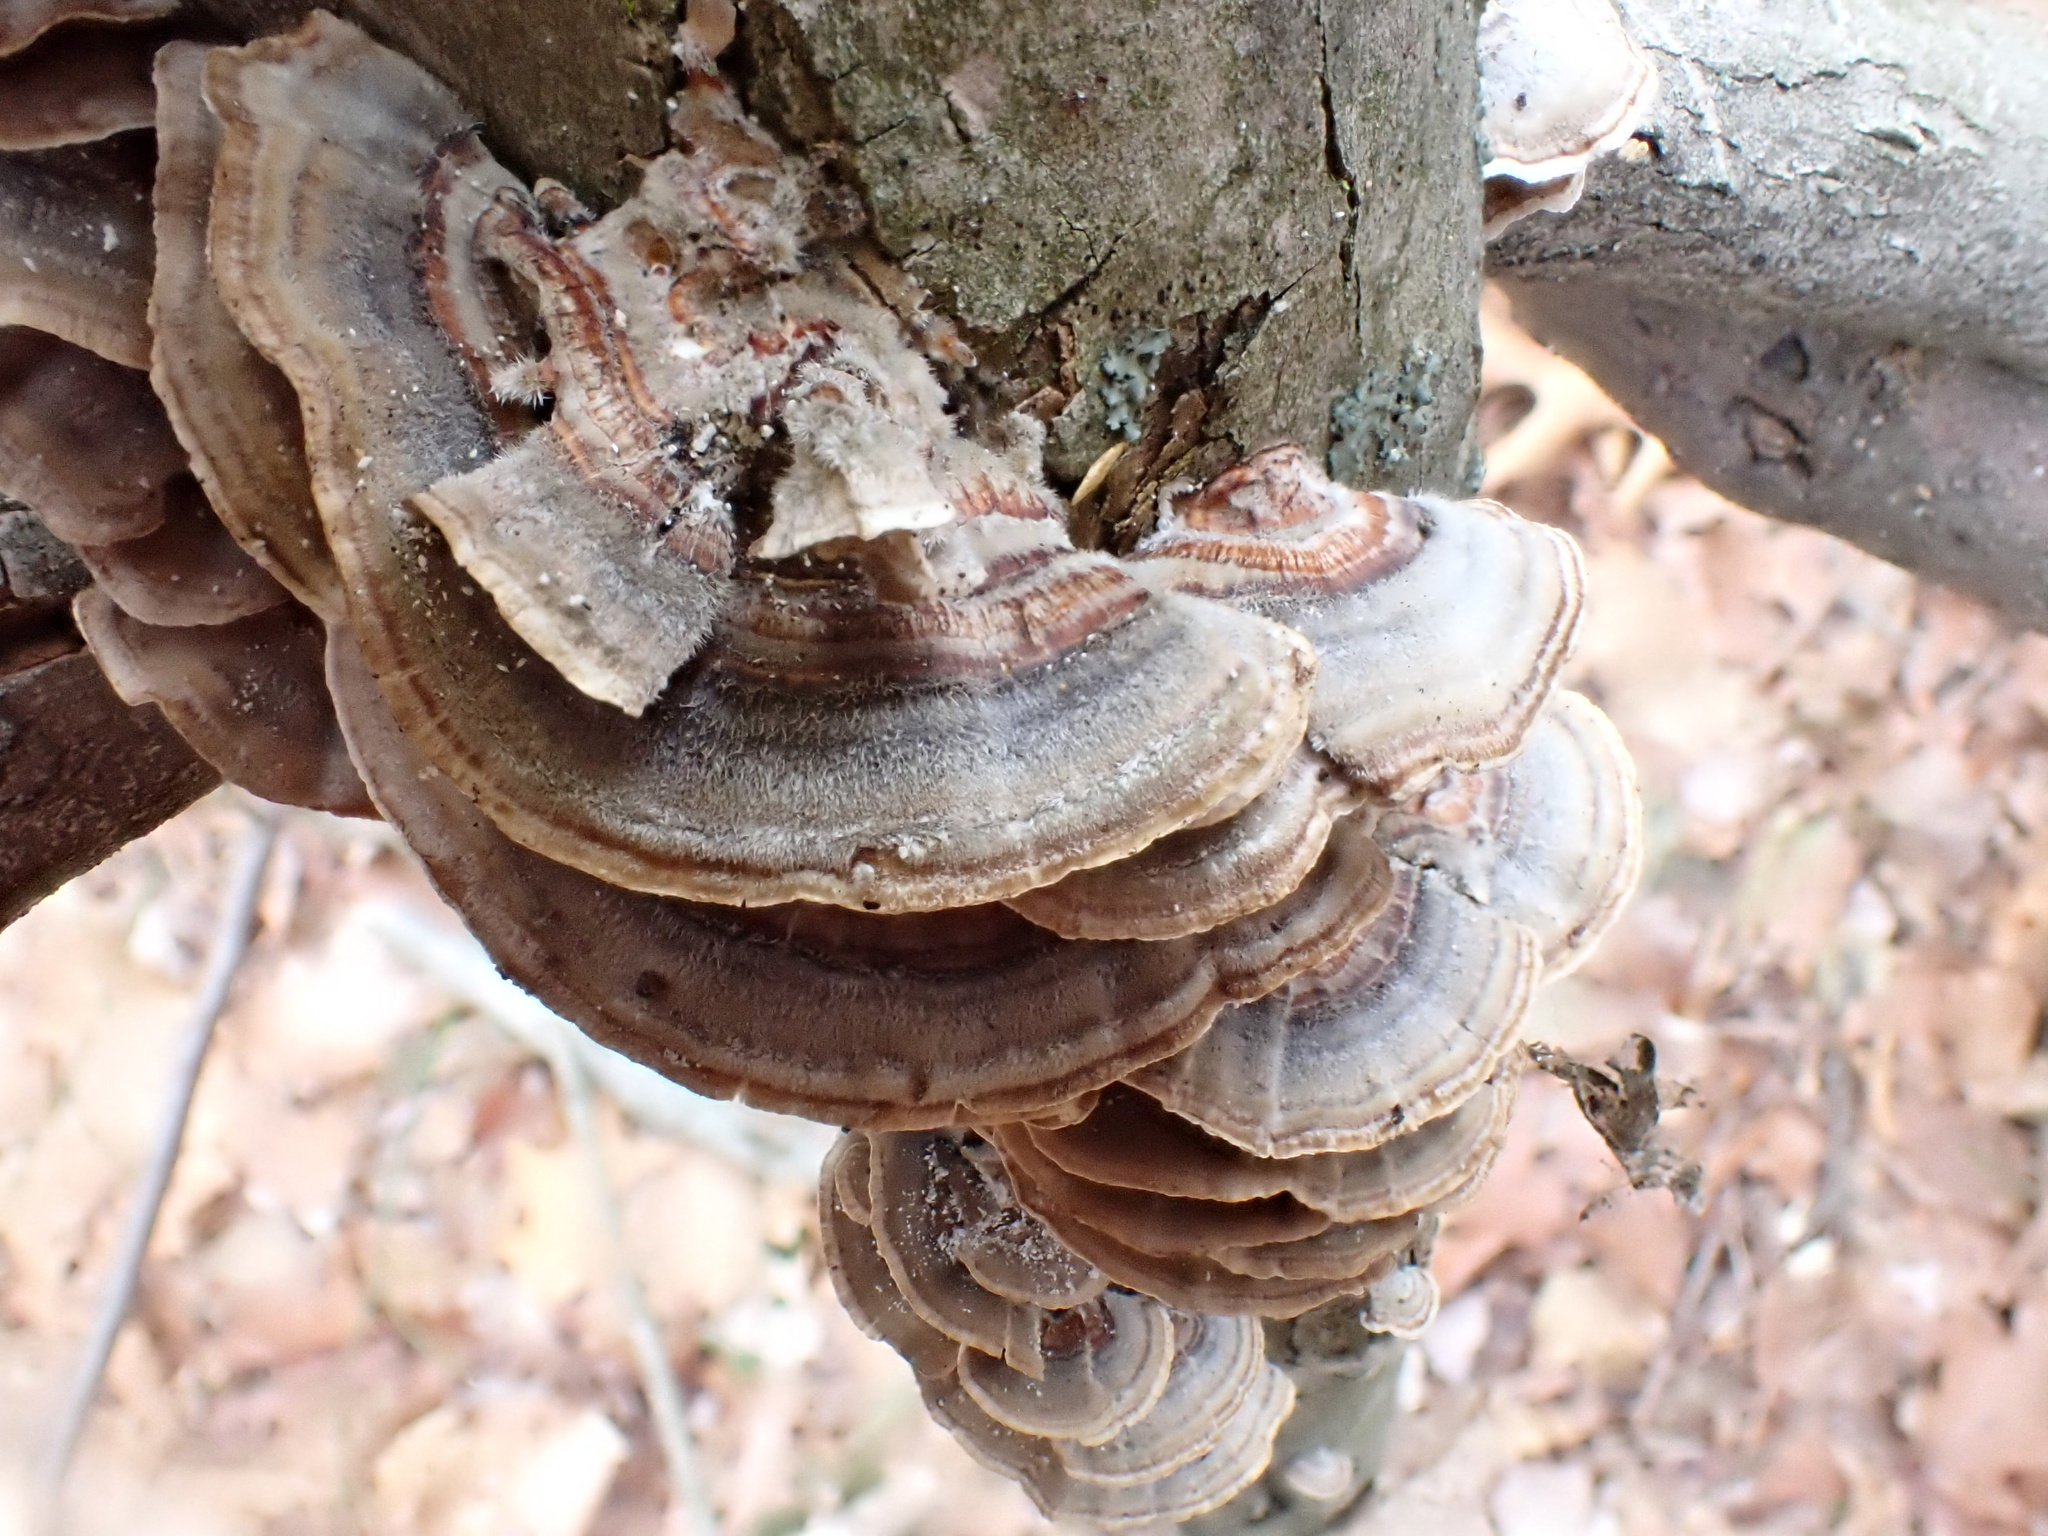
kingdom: Fungi
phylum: Basidiomycota
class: Agaricomycetes
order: Polyporales
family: Polyporaceae
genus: Trametes
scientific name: Trametes versicolor
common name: Turkeytail
